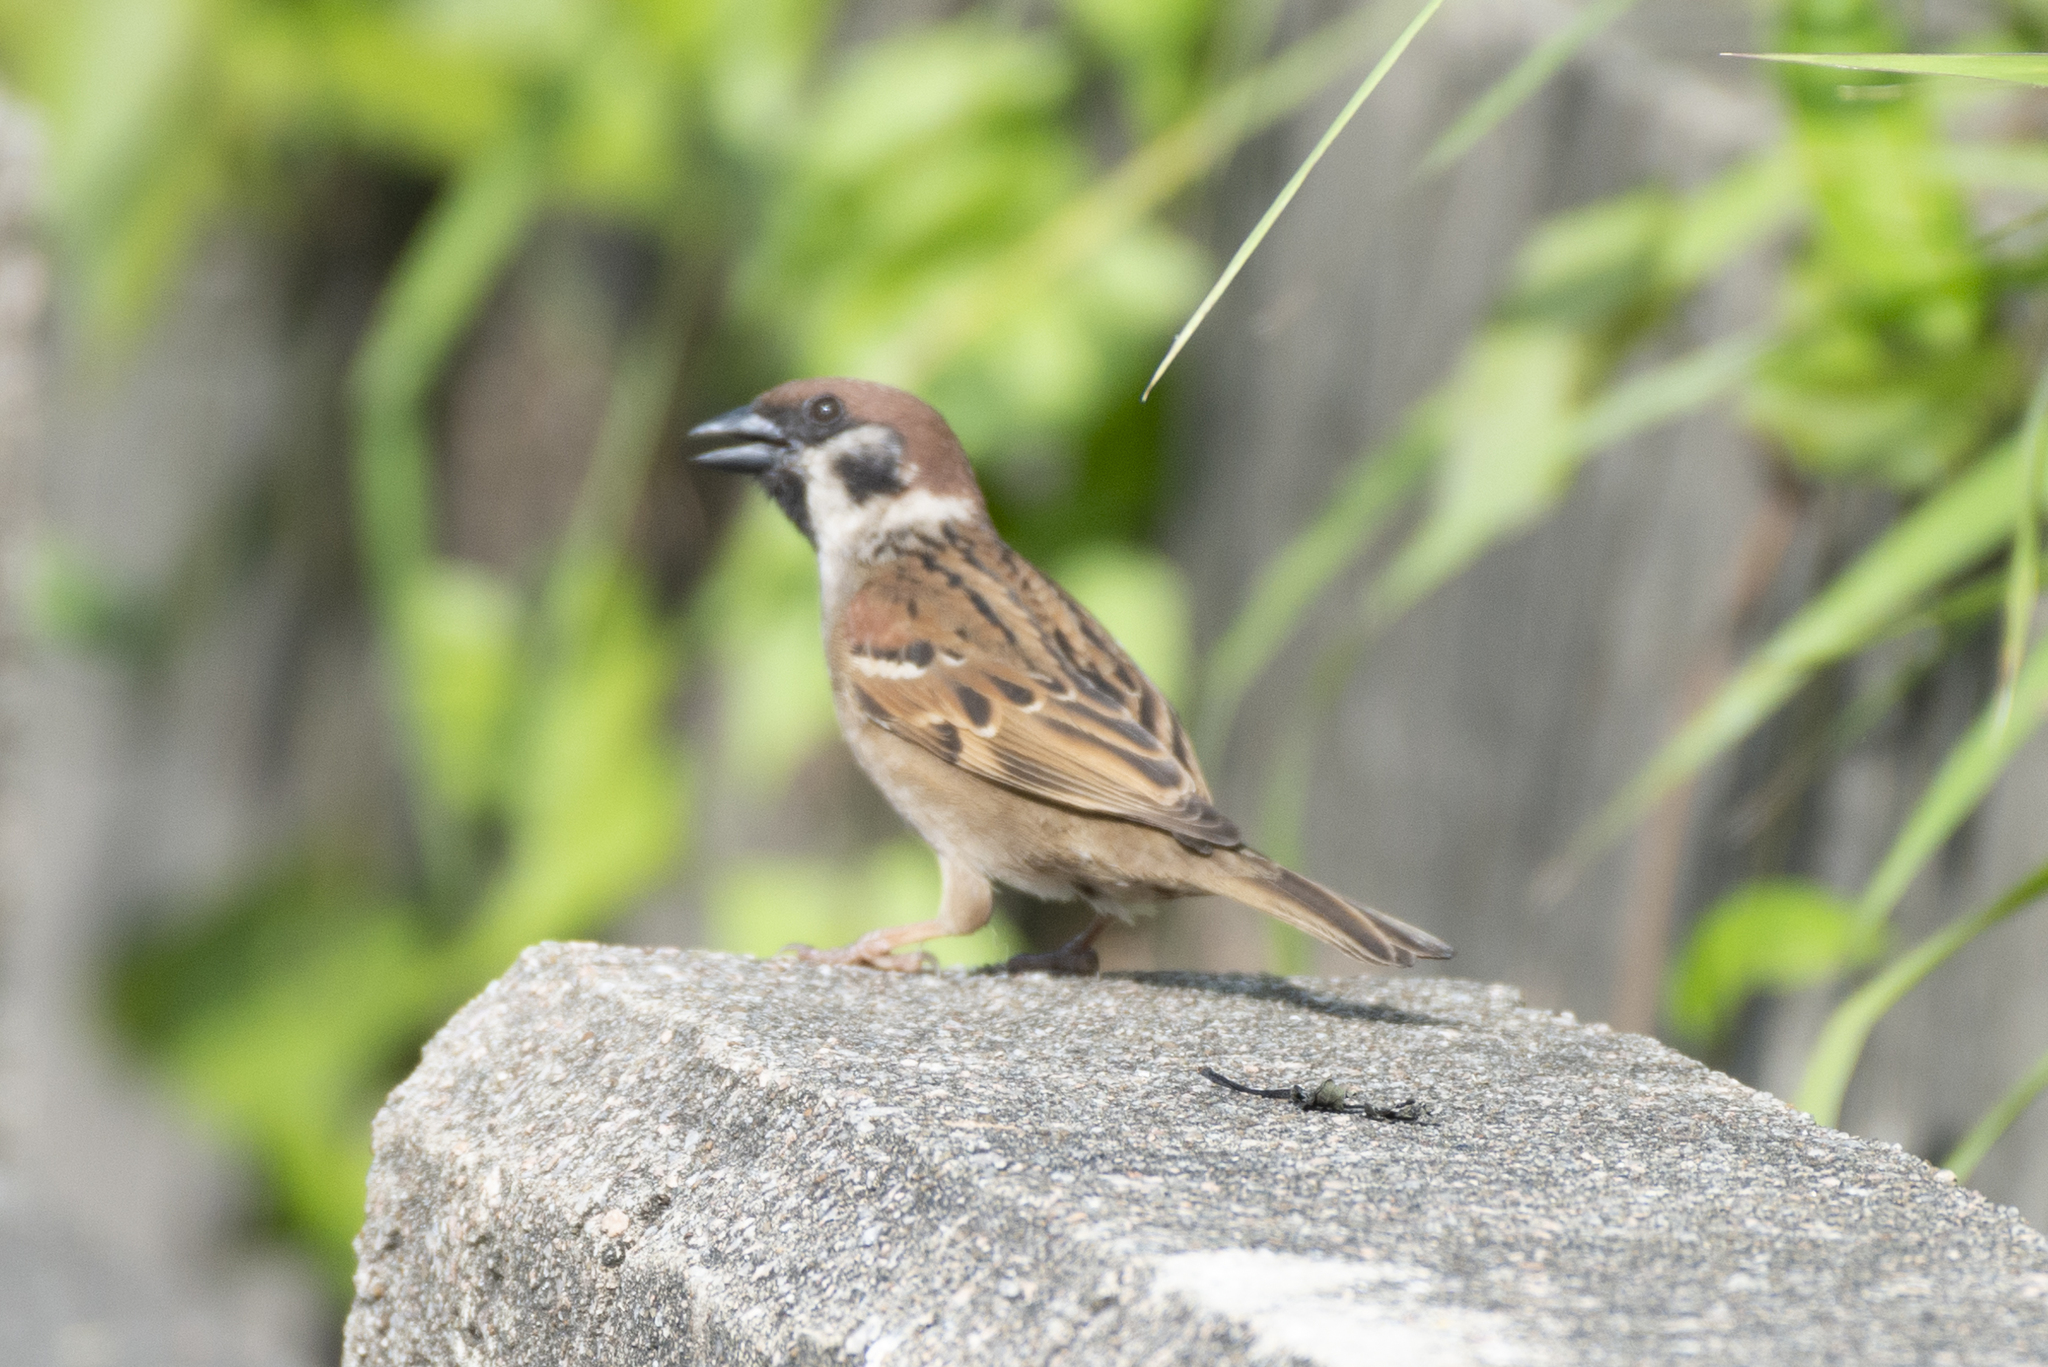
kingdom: Animalia
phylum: Chordata
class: Aves
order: Passeriformes
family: Passeridae
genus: Passer
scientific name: Passer montanus
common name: Eurasian tree sparrow
